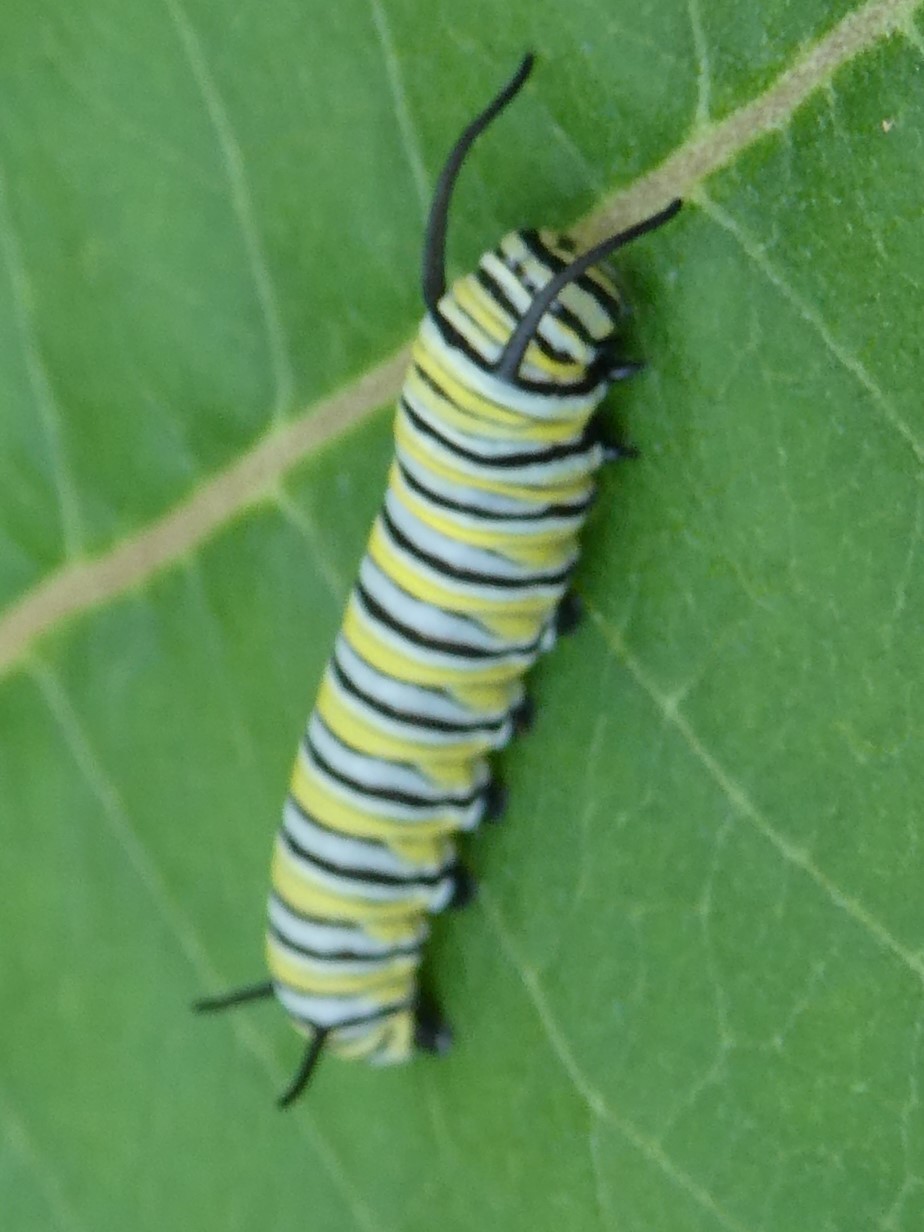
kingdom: Animalia
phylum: Arthropoda
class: Insecta
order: Lepidoptera
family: Nymphalidae
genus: Danaus
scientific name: Danaus plexippus
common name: Monarch
